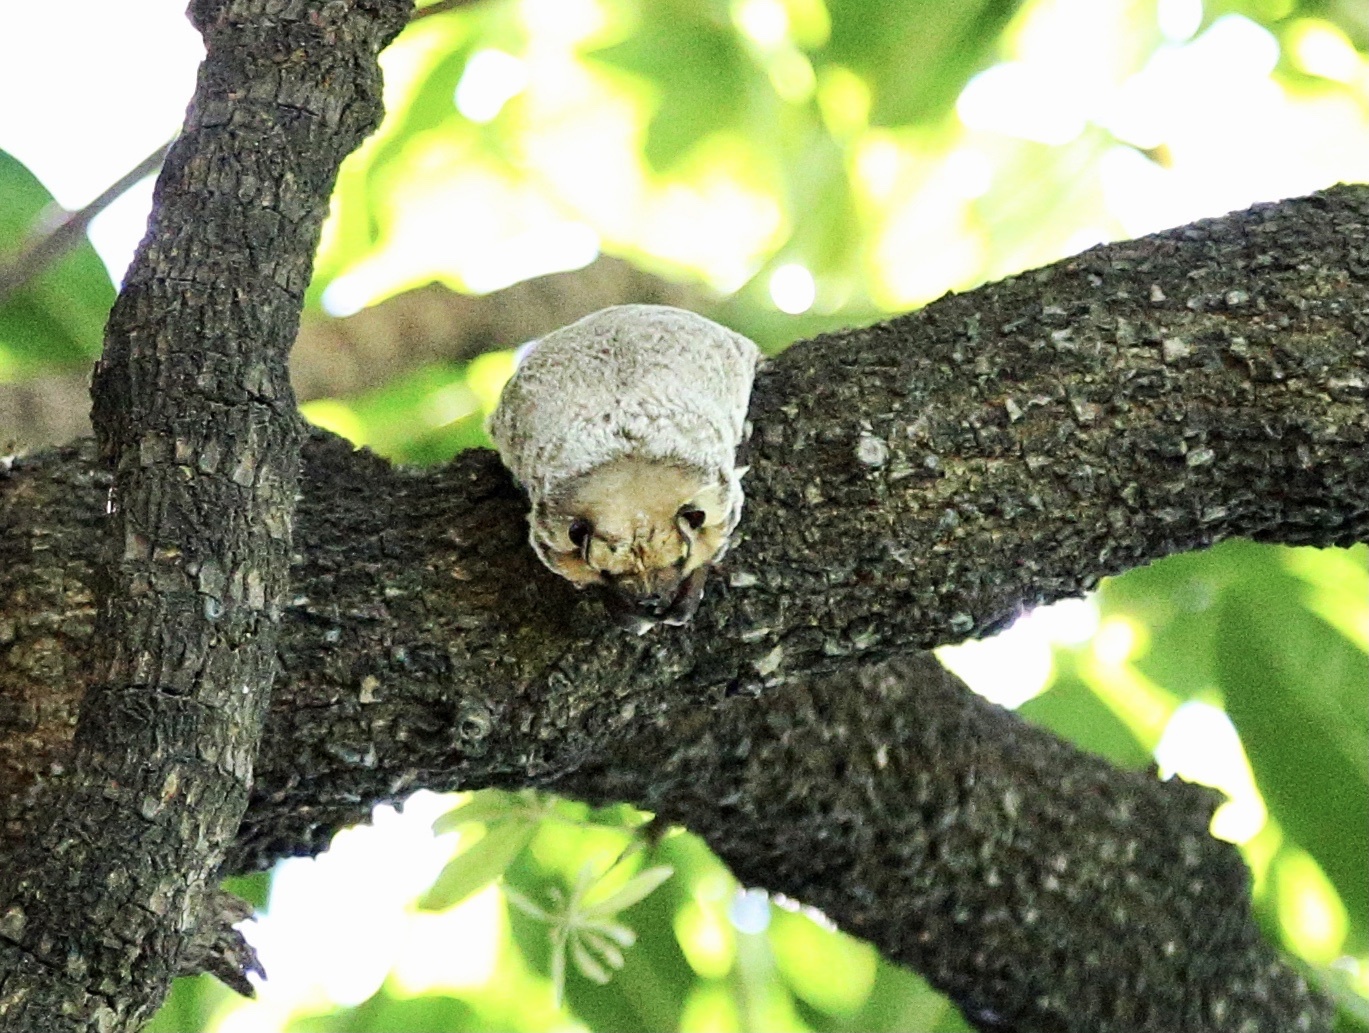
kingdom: Animalia
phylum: Chordata
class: Mammalia
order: Chiroptera
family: Vespertilionidae
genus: Aeorestes
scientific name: Aeorestes cinereus
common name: North american hoary bat
